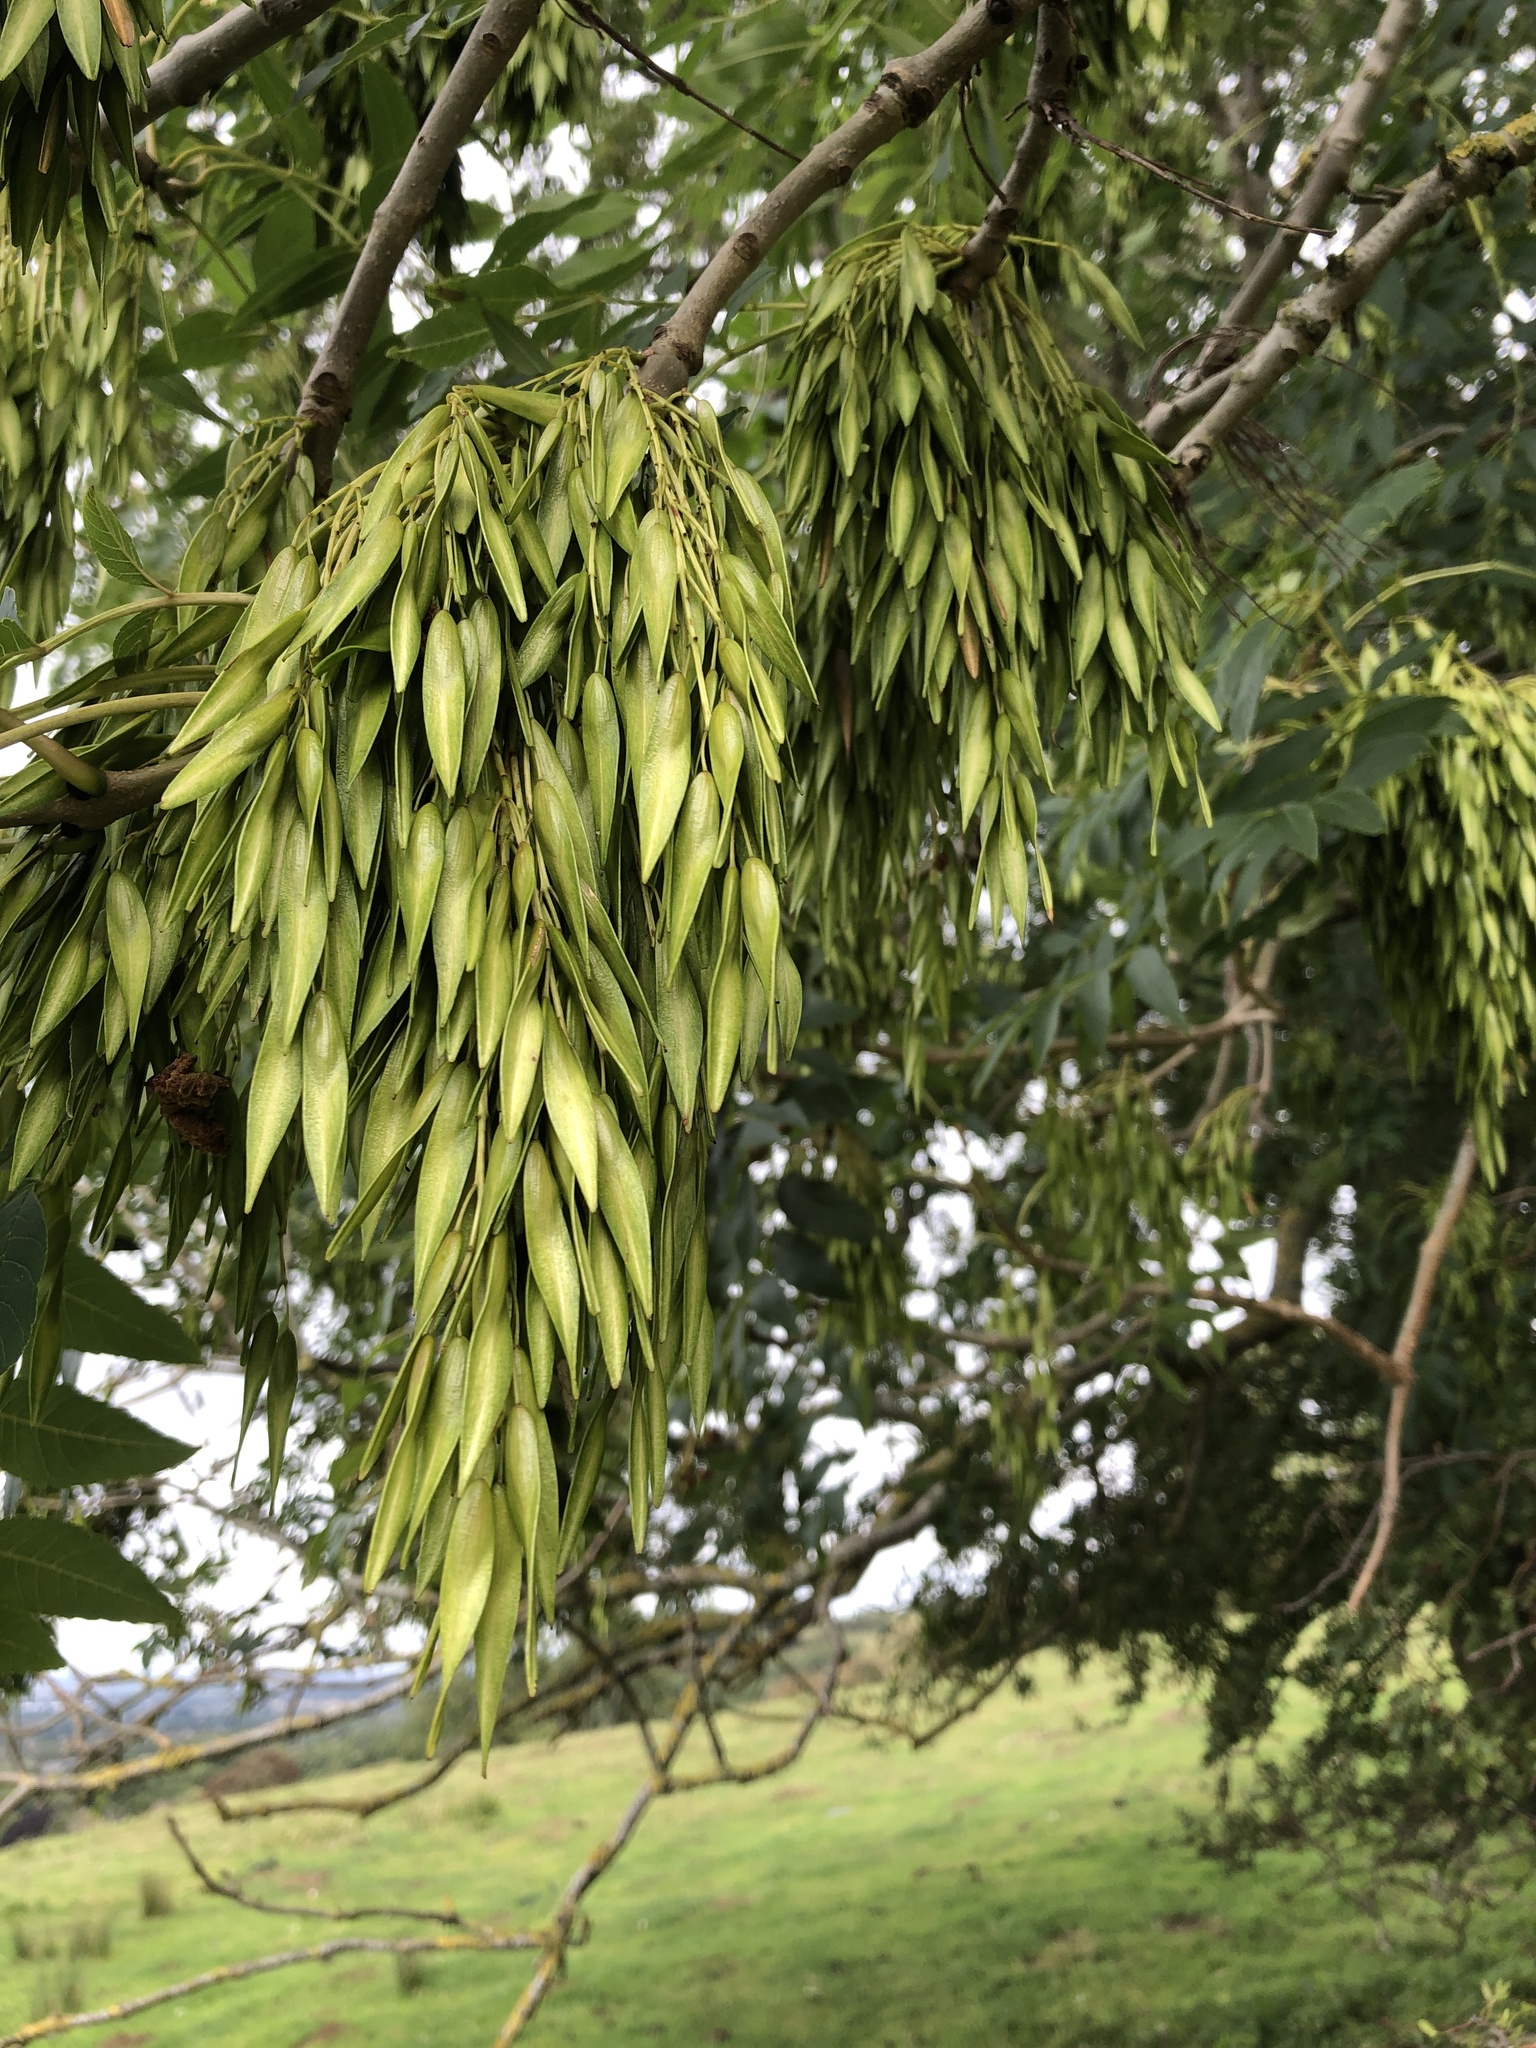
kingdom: Plantae
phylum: Tracheophyta
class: Magnoliopsida
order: Lamiales
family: Oleaceae
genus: Fraxinus
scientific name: Fraxinus excelsior
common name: European ash
